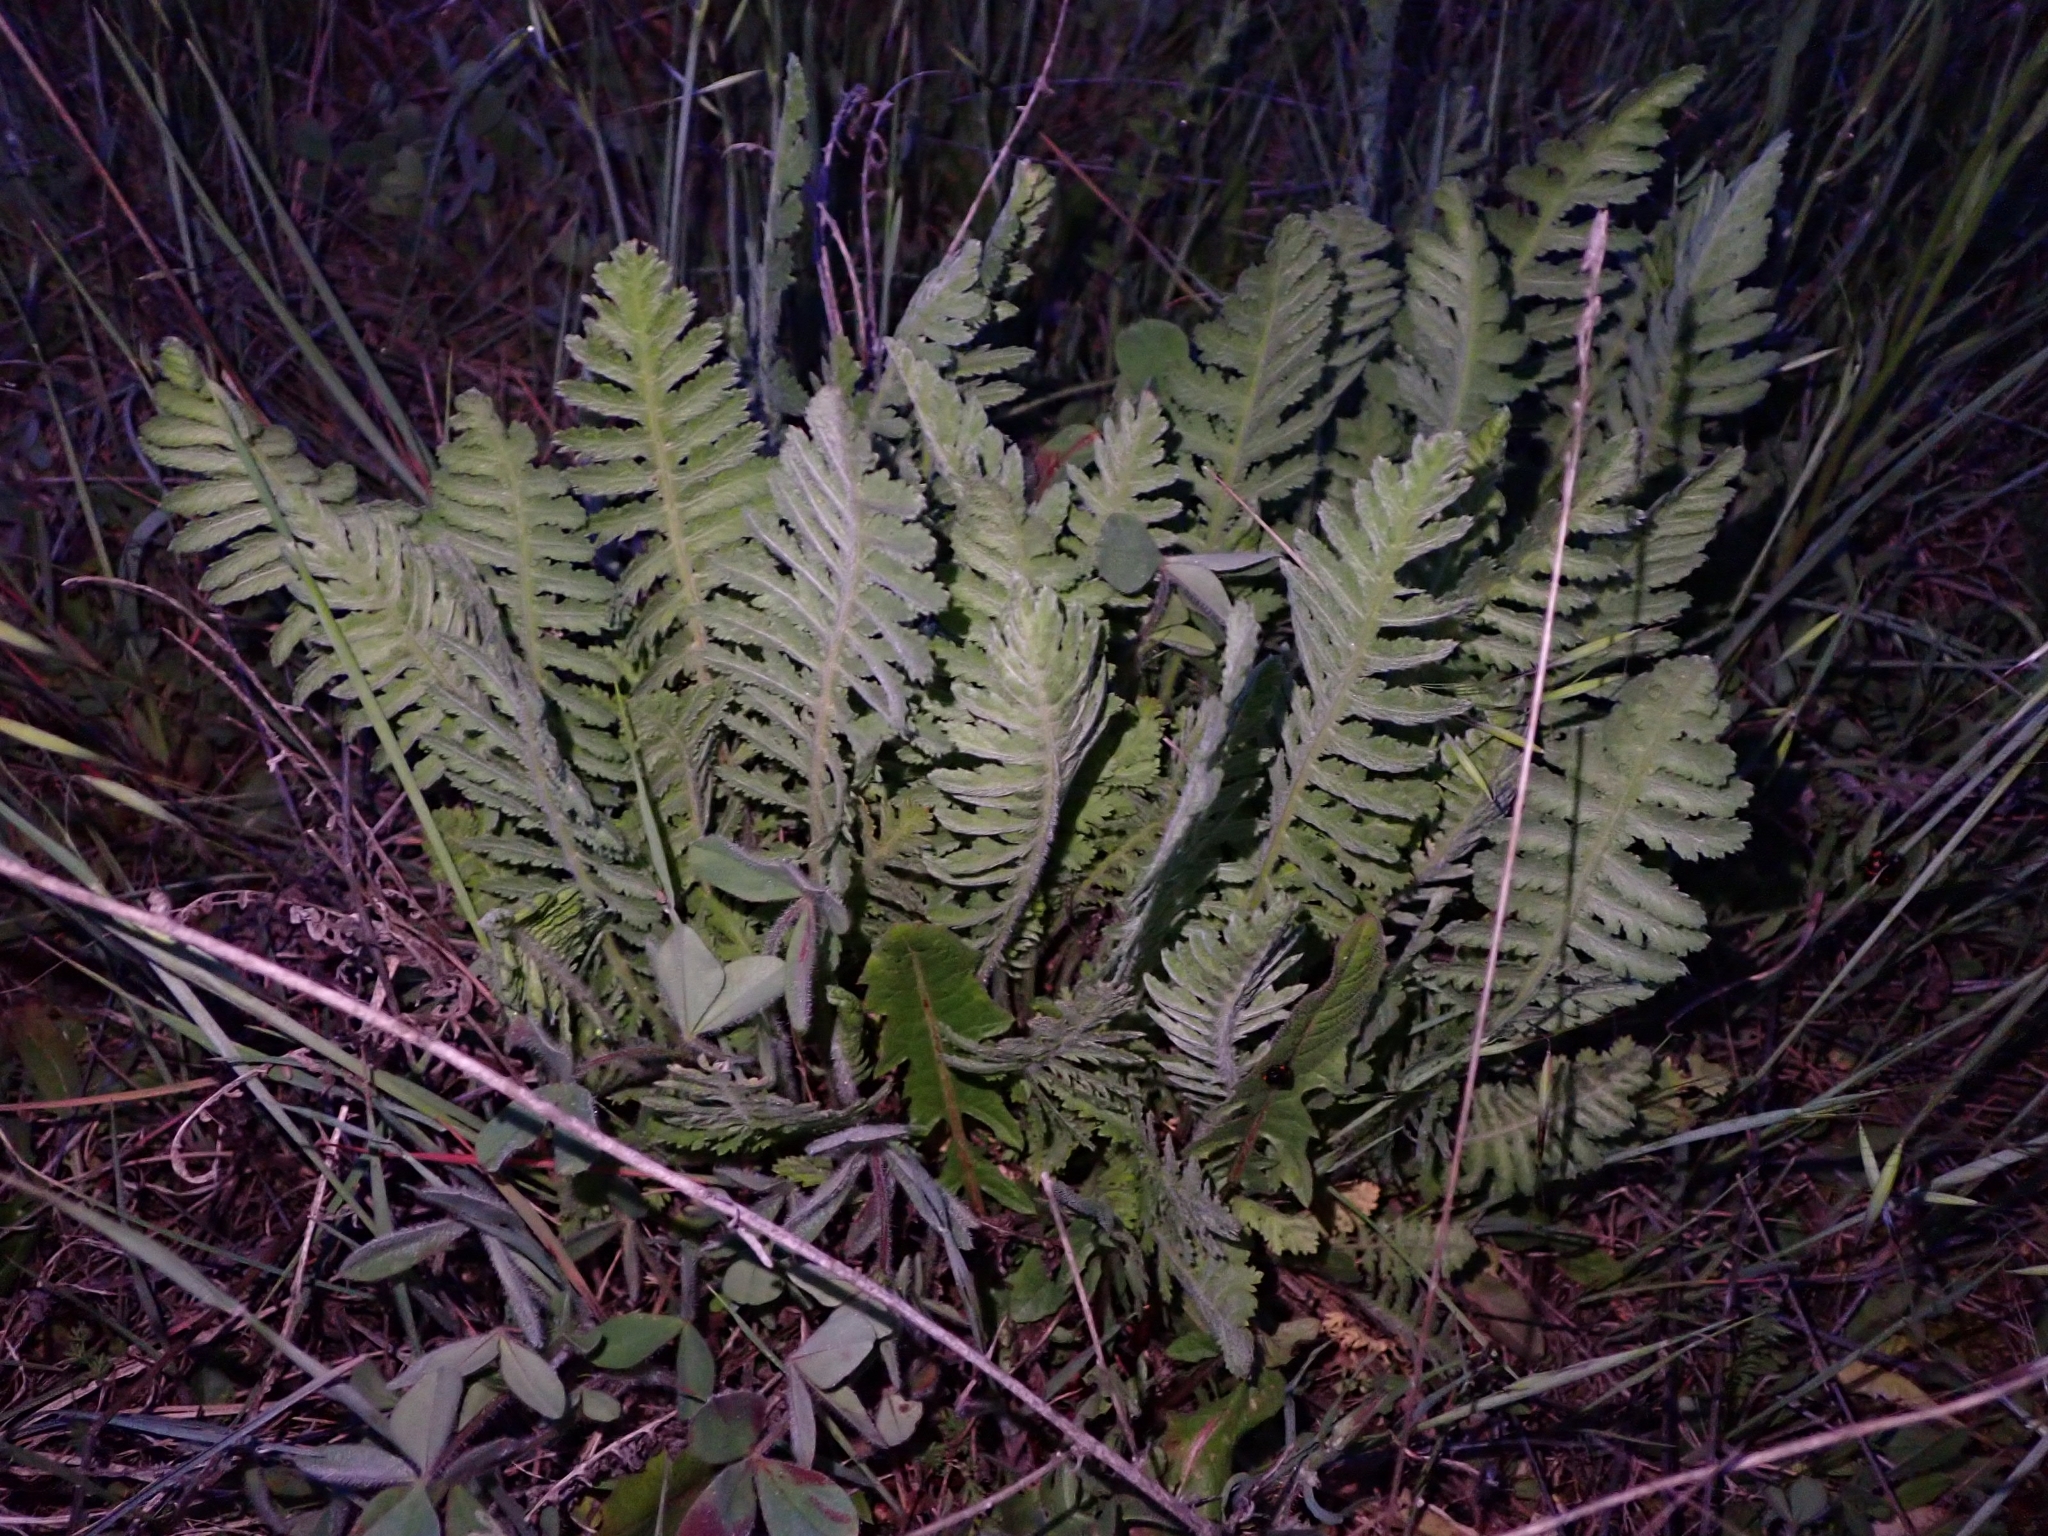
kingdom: Plantae
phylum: Tracheophyta
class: Magnoliopsida
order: Asterales
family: Asteraceae
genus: Achillea
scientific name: Achillea filipendulina
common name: Fernleaf yarrow
